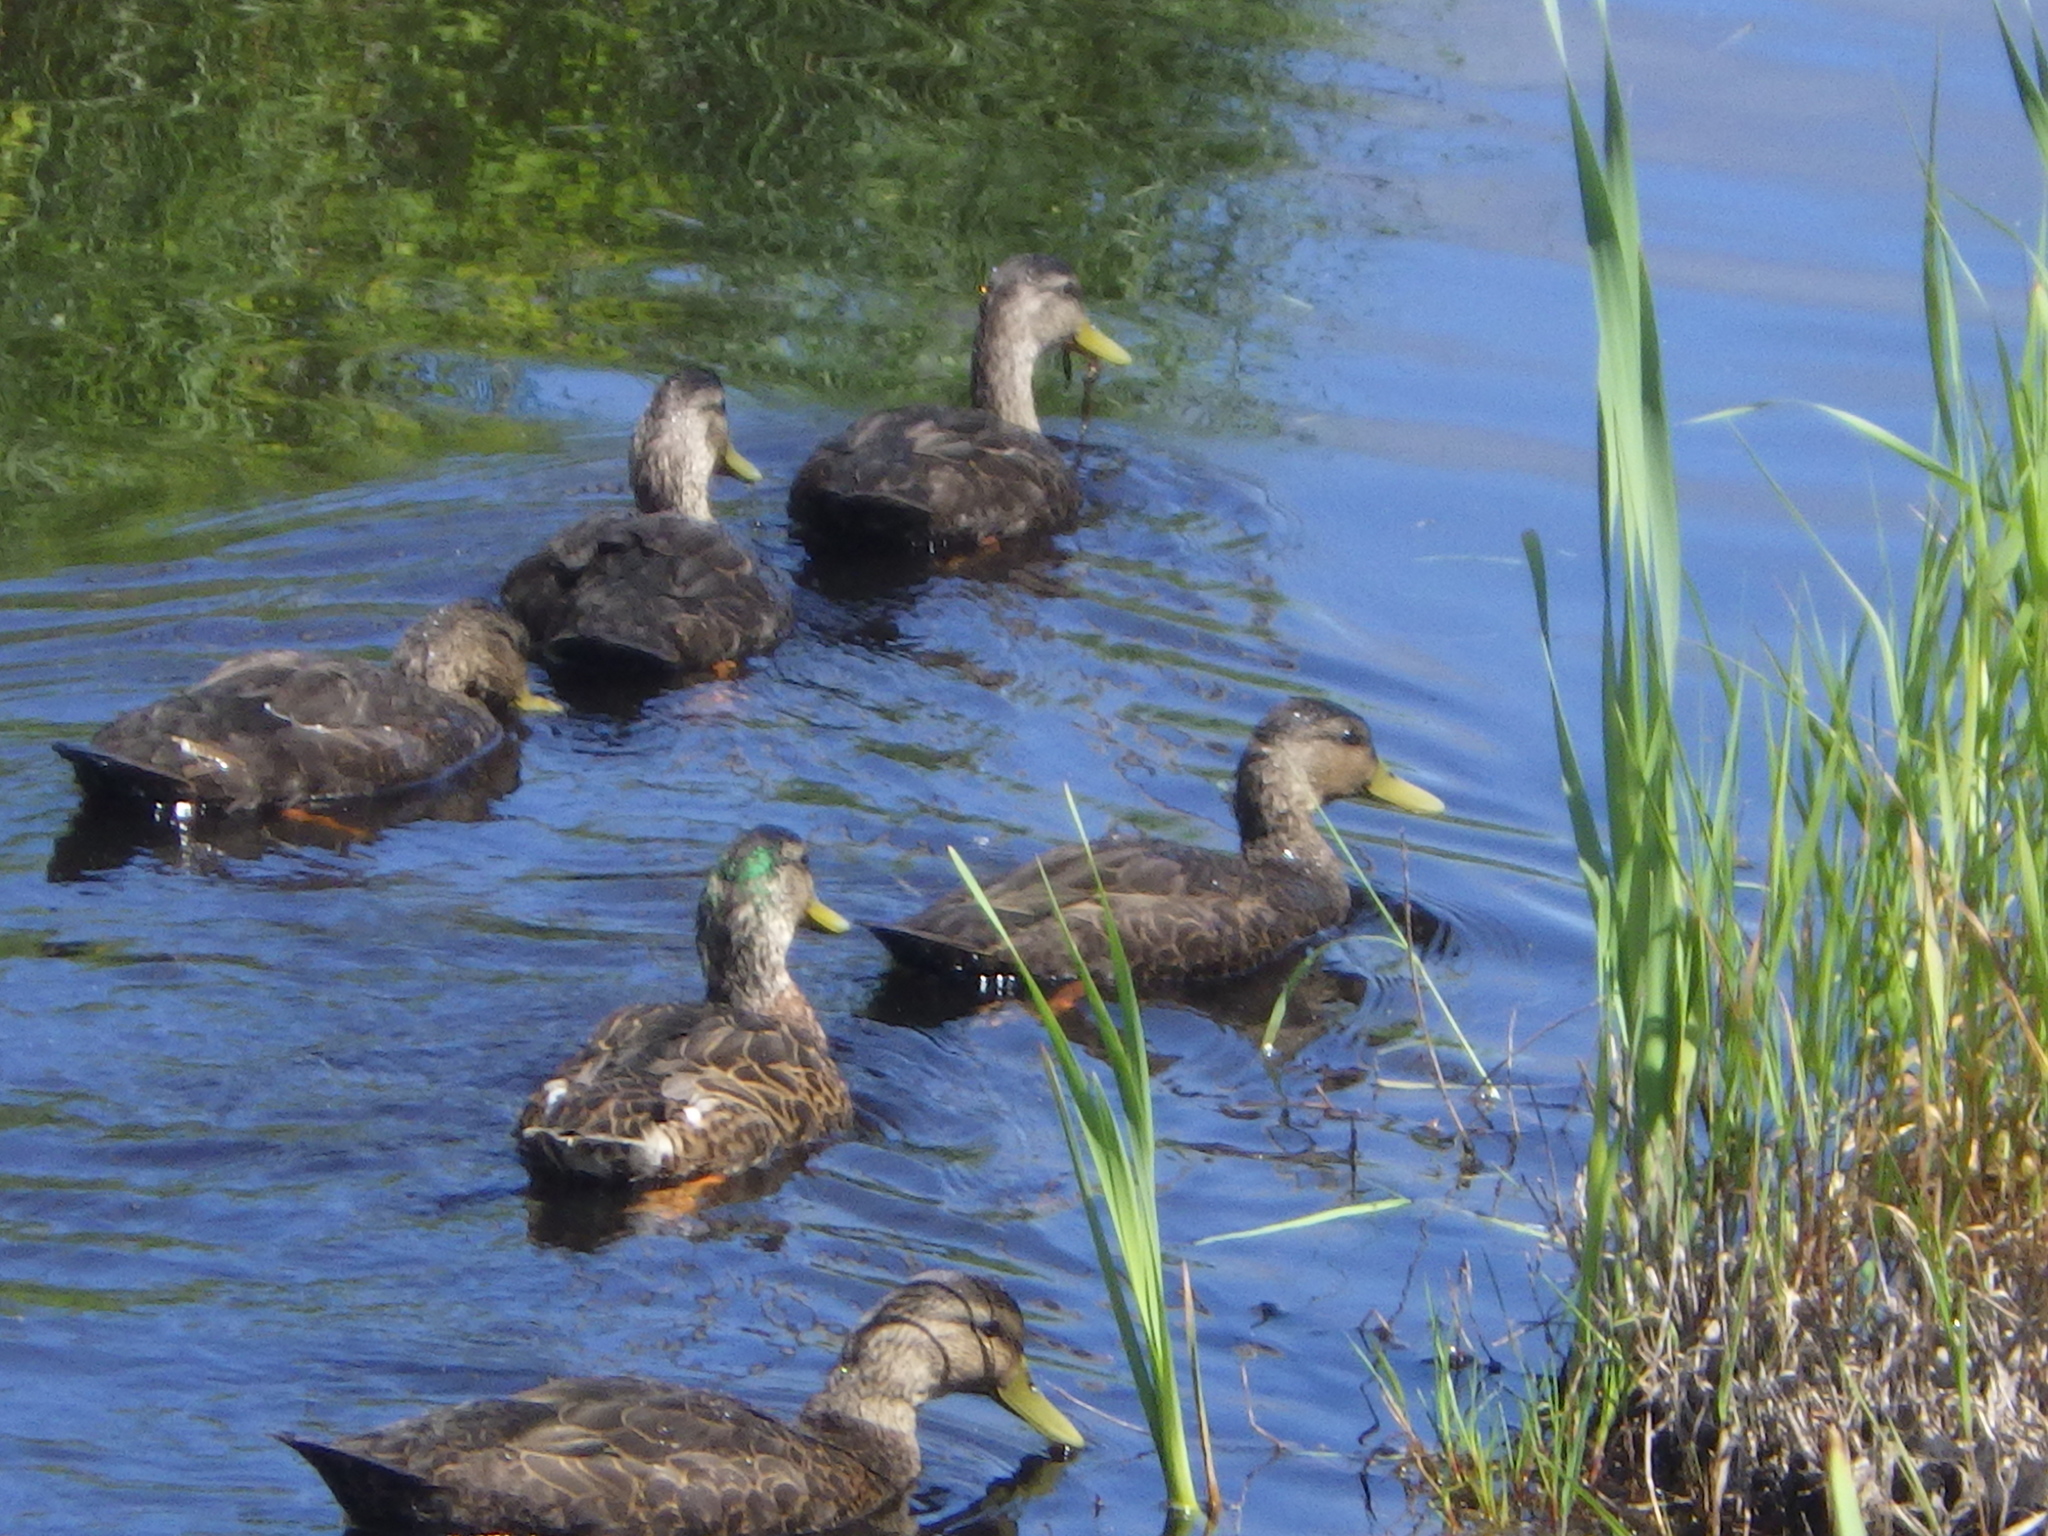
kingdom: Animalia
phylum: Chordata
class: Aves
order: Anseriformes
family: Anatidae
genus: Anas
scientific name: Anas
